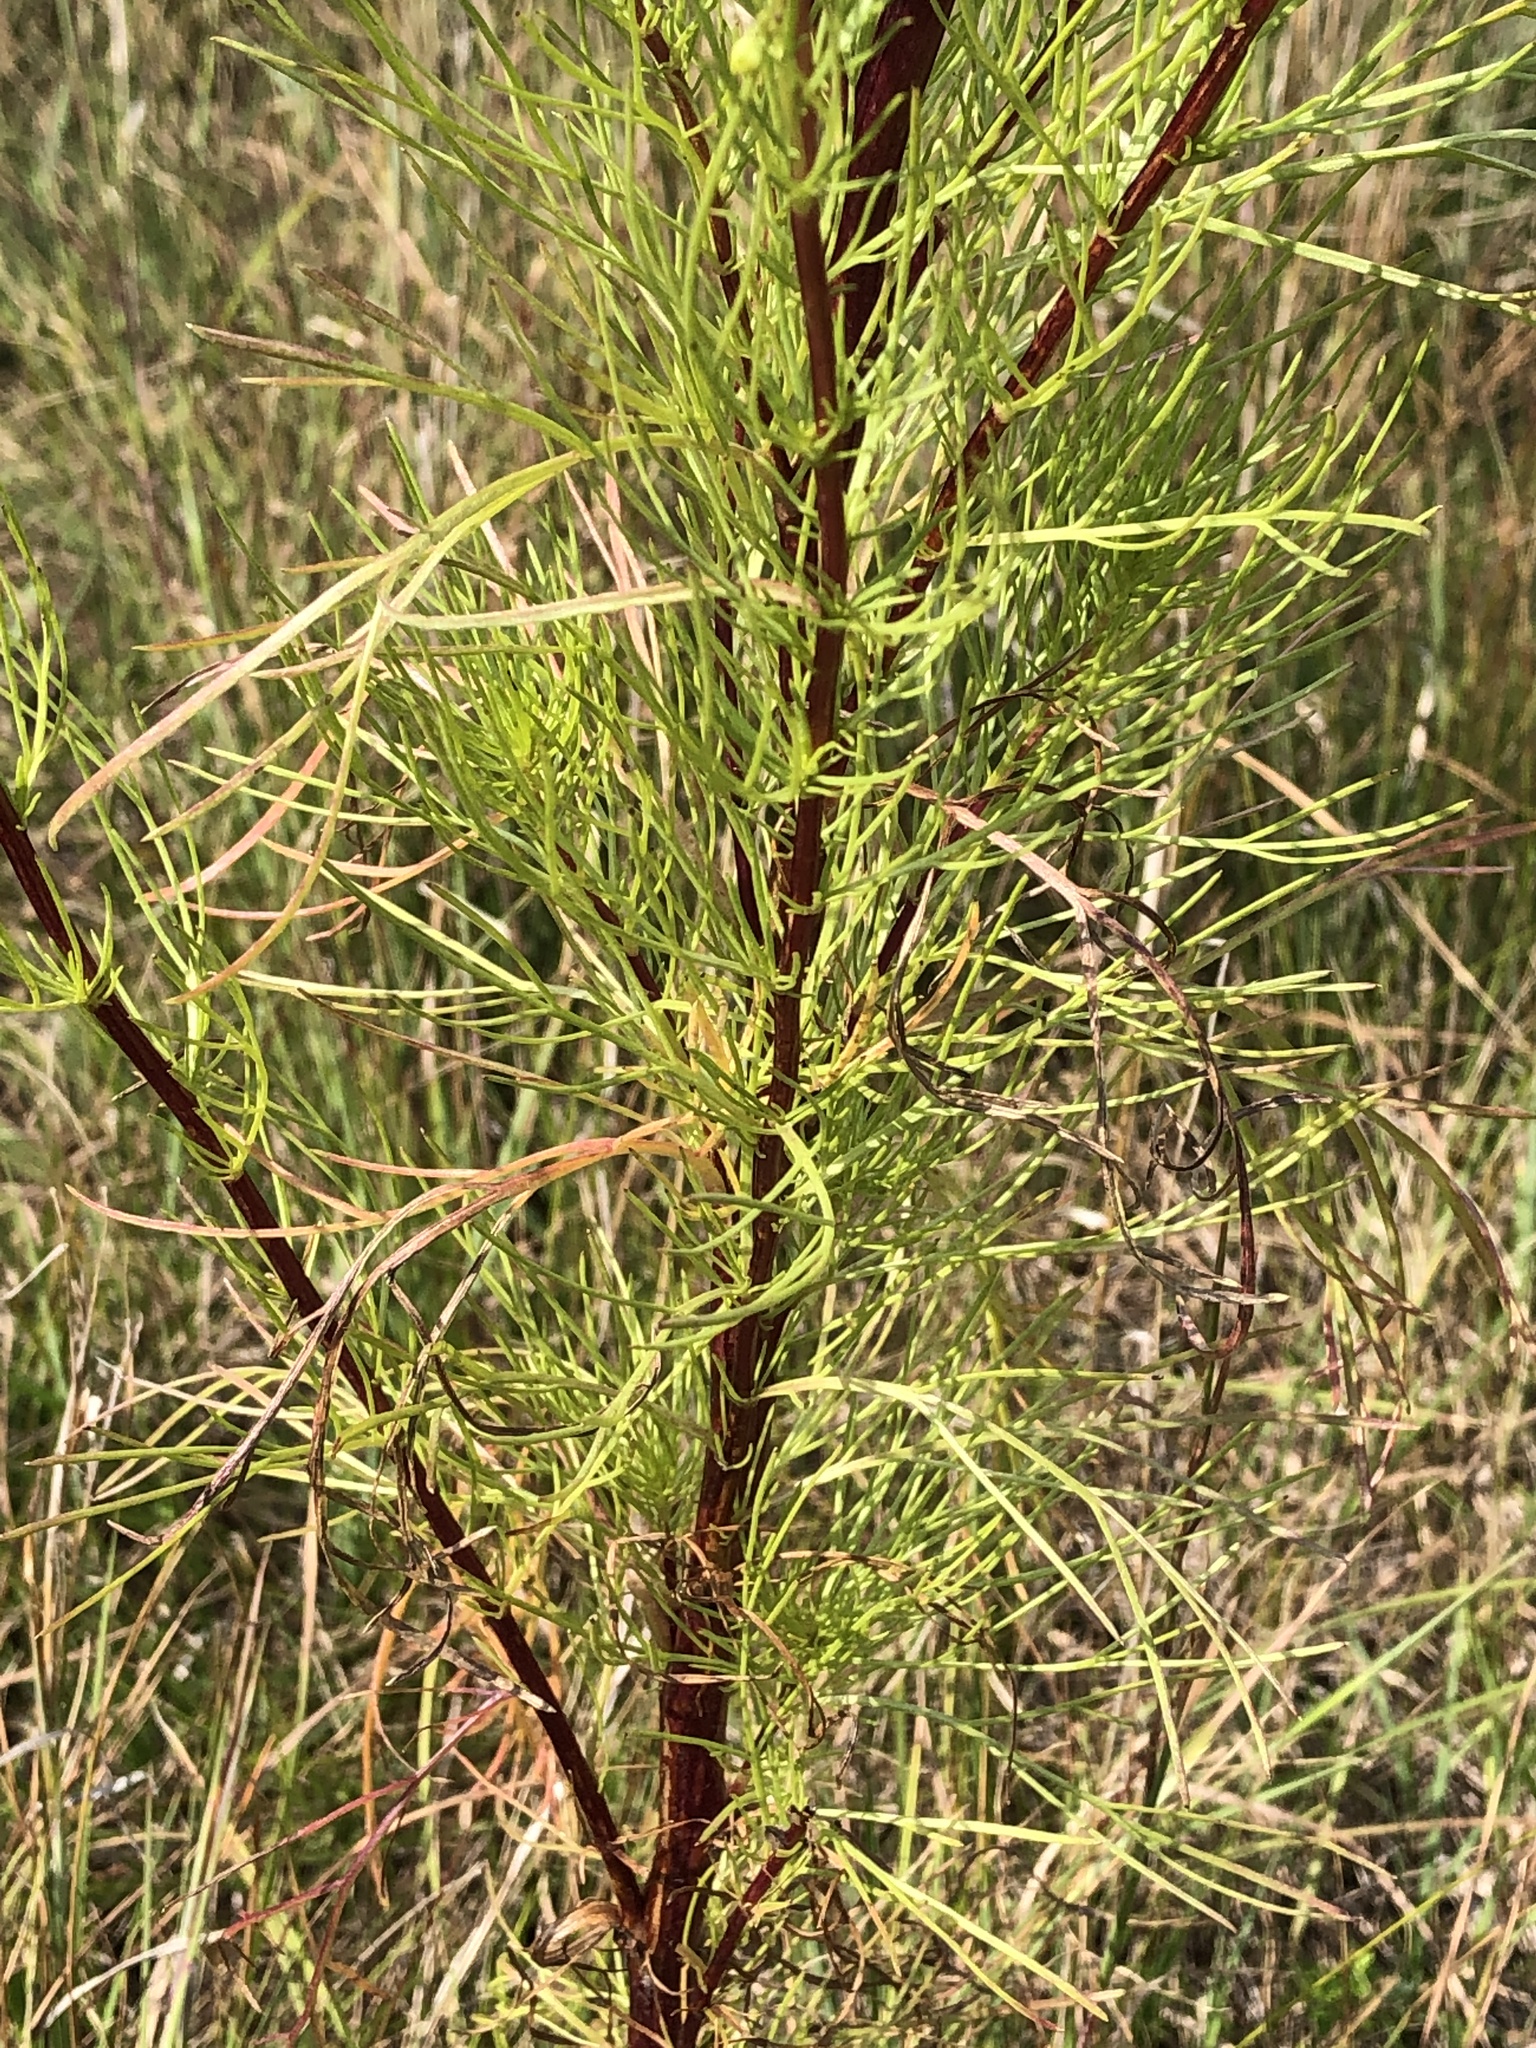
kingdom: Plantae
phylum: Tracheophyta
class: Magnoliopsida
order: Asterales
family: Asteraceae
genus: Artemisia
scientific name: Artemisia campestris
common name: Field wormwood
